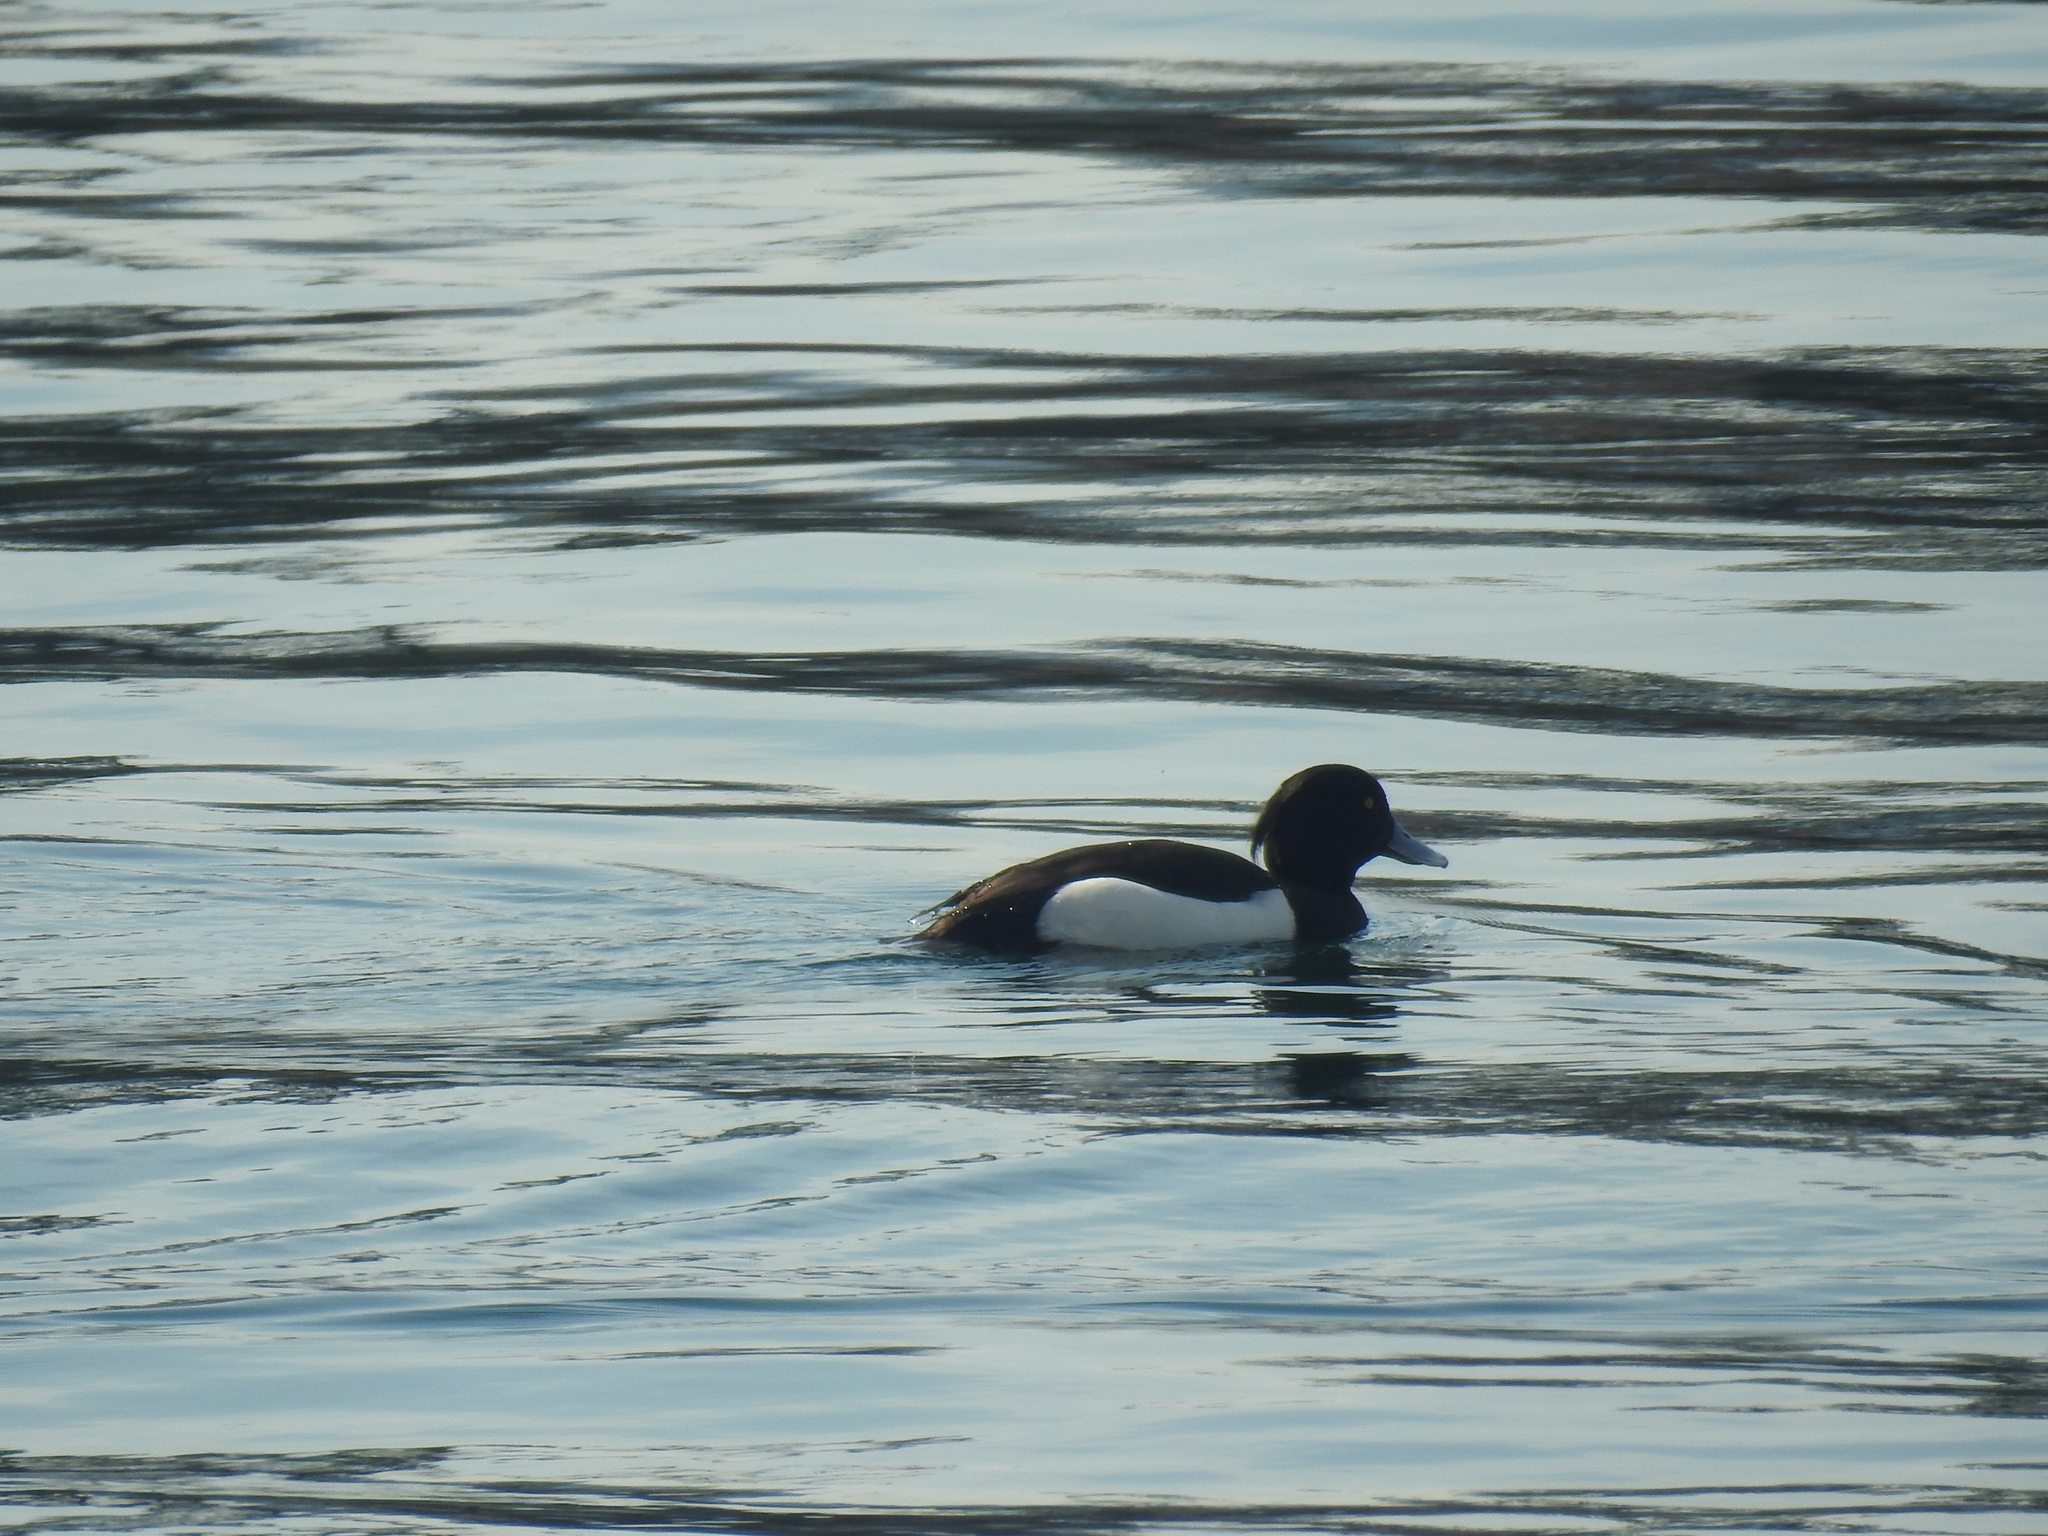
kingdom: Animalia
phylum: Chordata
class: Aves
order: Anseriformes
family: Anatidae
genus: Aythya
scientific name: Aythya fuligula
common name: Tufted duck
